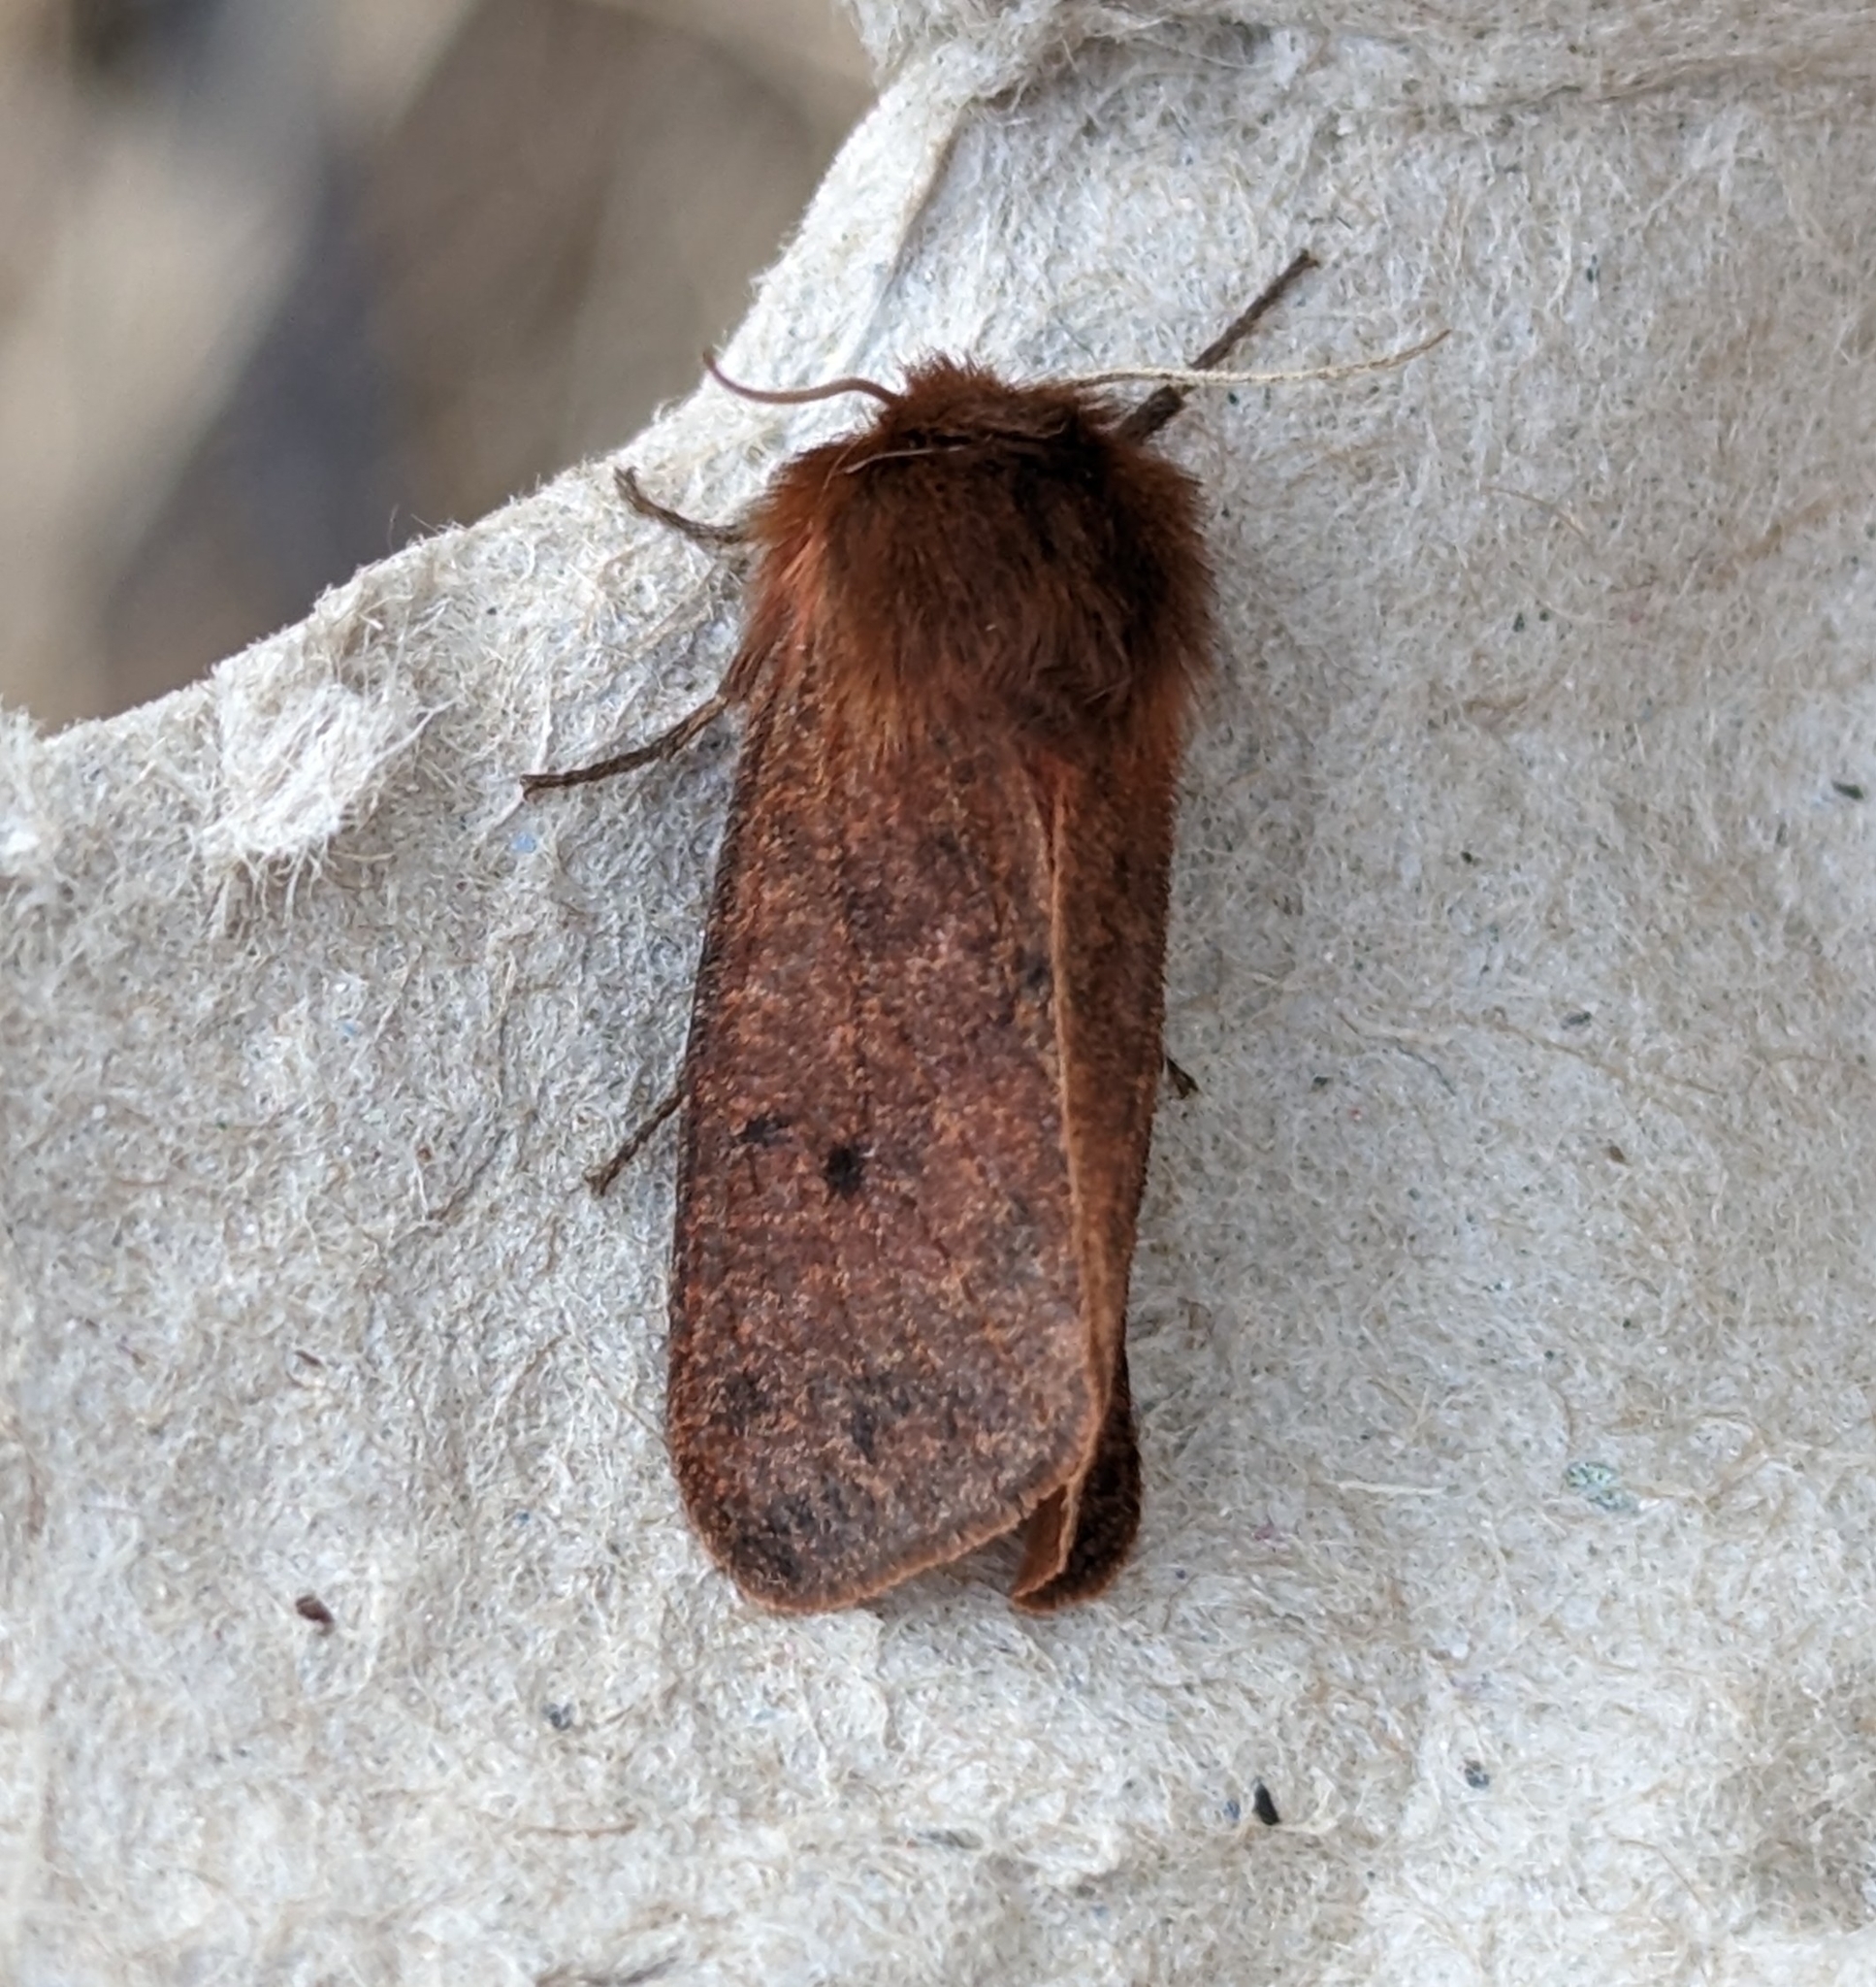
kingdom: Animalia
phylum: Arthropoda
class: Insecta
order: Lepidoptera
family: Erebidae
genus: Phragmatobia
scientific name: Phragmatobia assimilans
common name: Large ruby tiger moth
